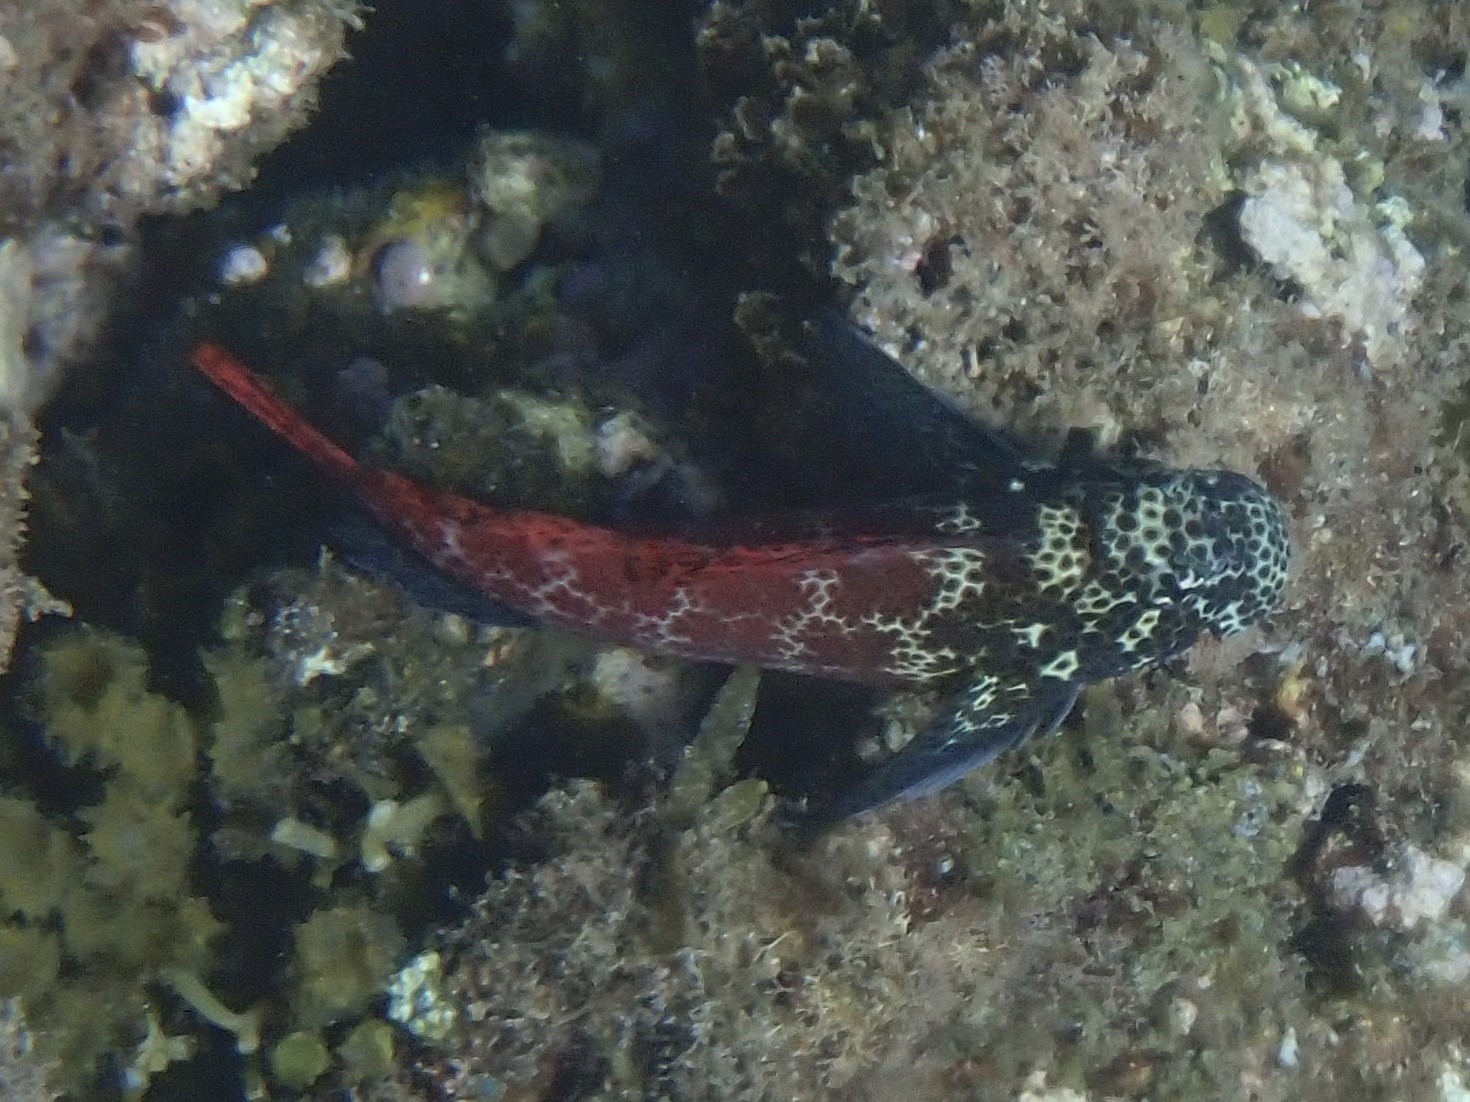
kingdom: Animalia
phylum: Chordata
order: Perciformes
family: Blenniidae
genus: Exallias
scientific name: Exallias brevis
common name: Leopard blenny
